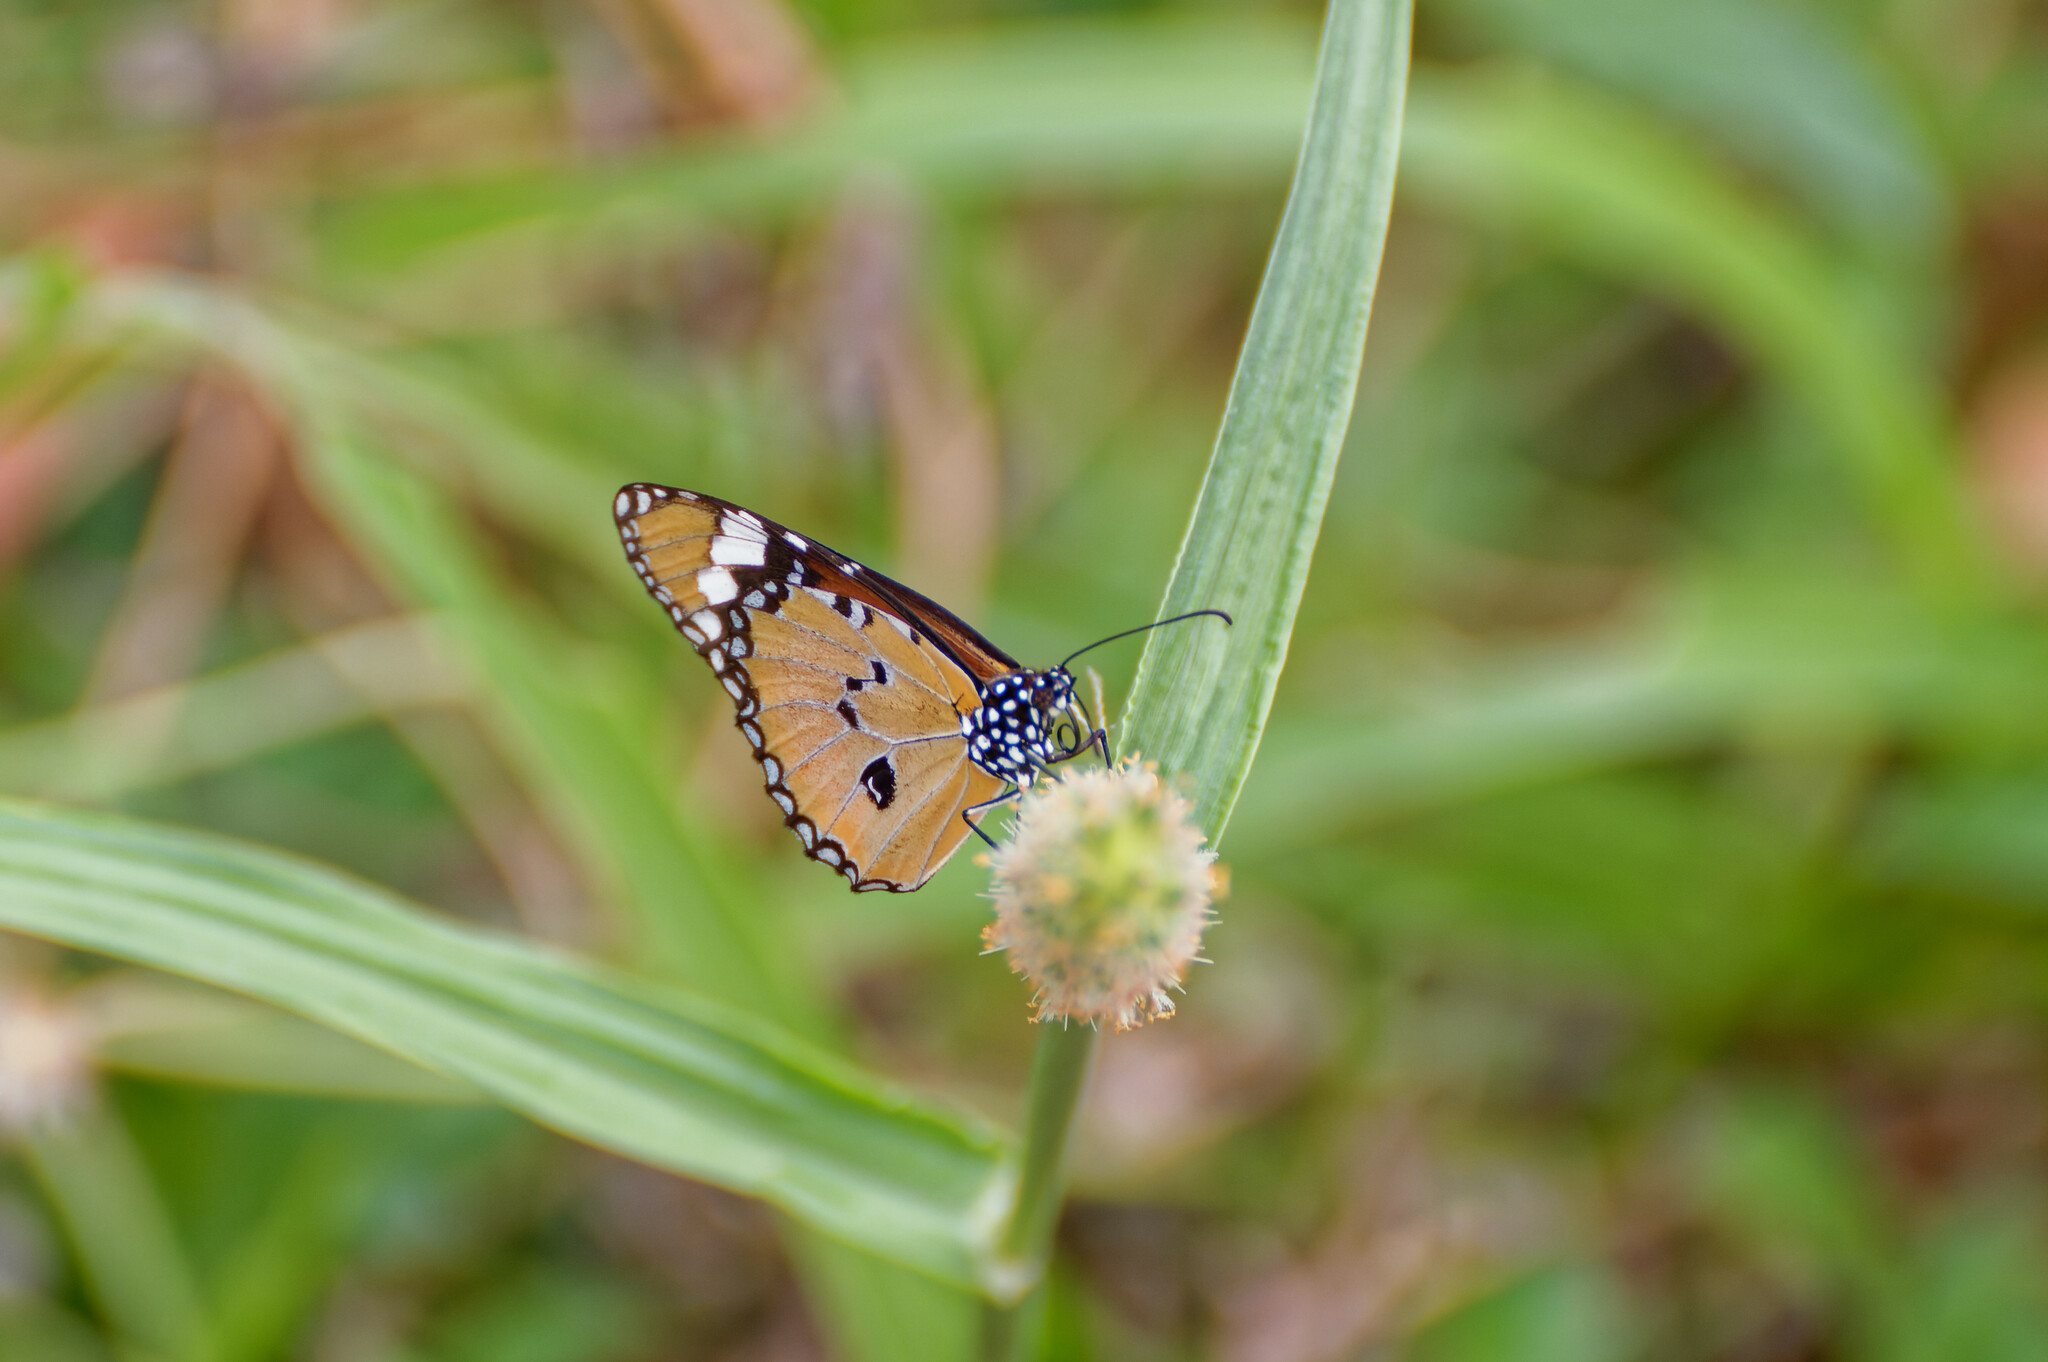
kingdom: Animalia
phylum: Arthropoda
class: Insecta
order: Lepidoptera
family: Nymphalidae
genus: Danaus
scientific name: Danaus chrysippus
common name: Plain tiger
